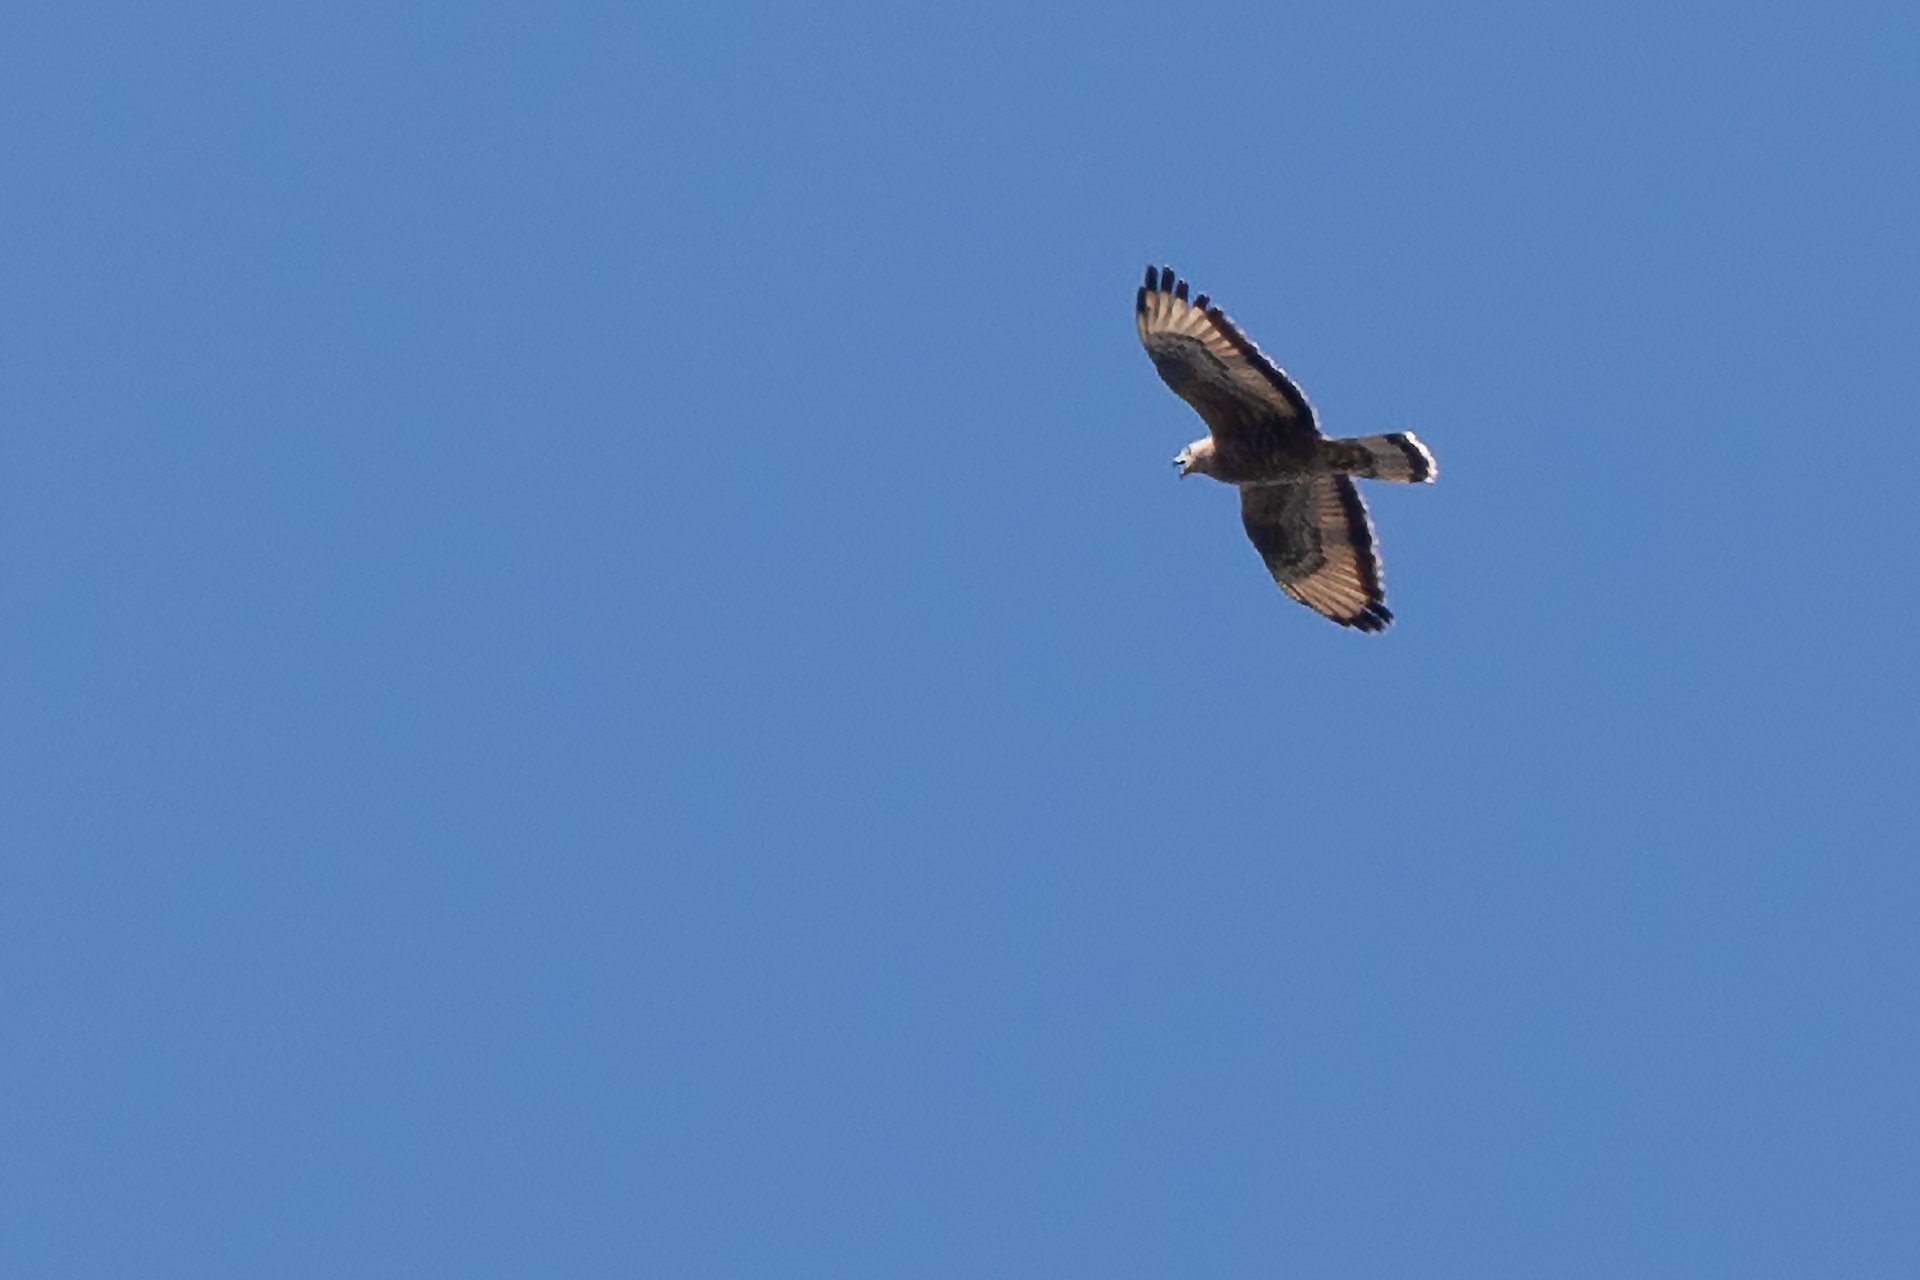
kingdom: Animalia
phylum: Chordata
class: Aves
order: Accipitriformes
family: Accipitridae
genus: Pernis
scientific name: Pernis apivorus
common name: European honey buzzard
